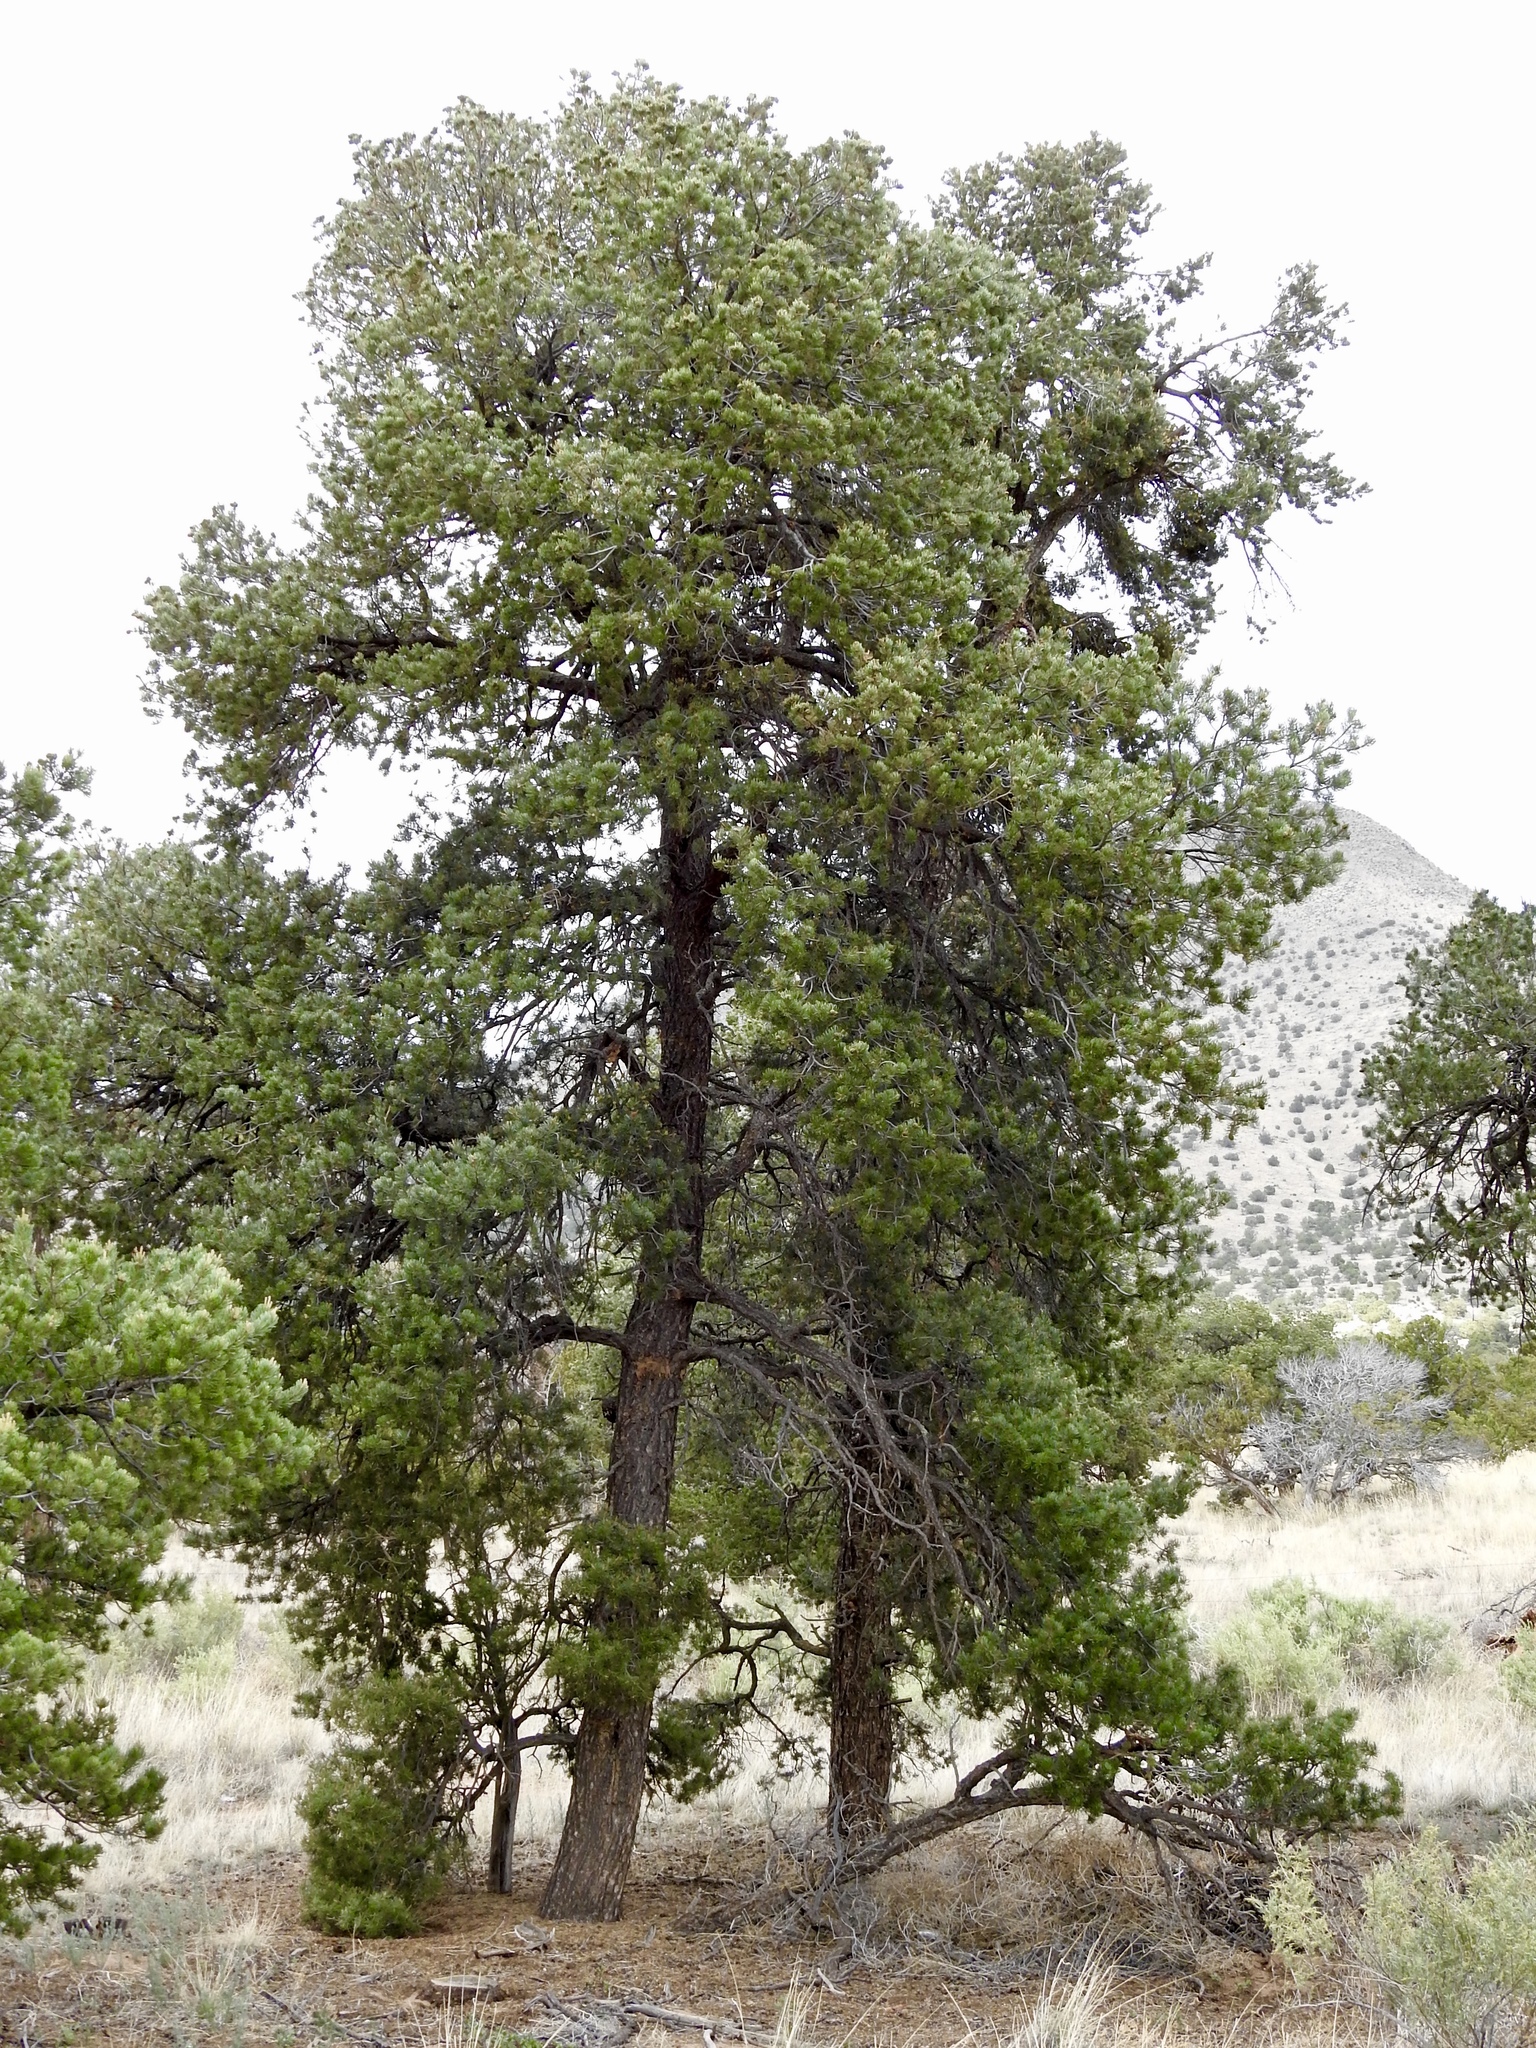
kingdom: Plantae
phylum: Tracheophyta
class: Pinopsida
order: Pinales
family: Pinaceae
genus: Pinus
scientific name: Pinus edulis
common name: Colorado pinyon
